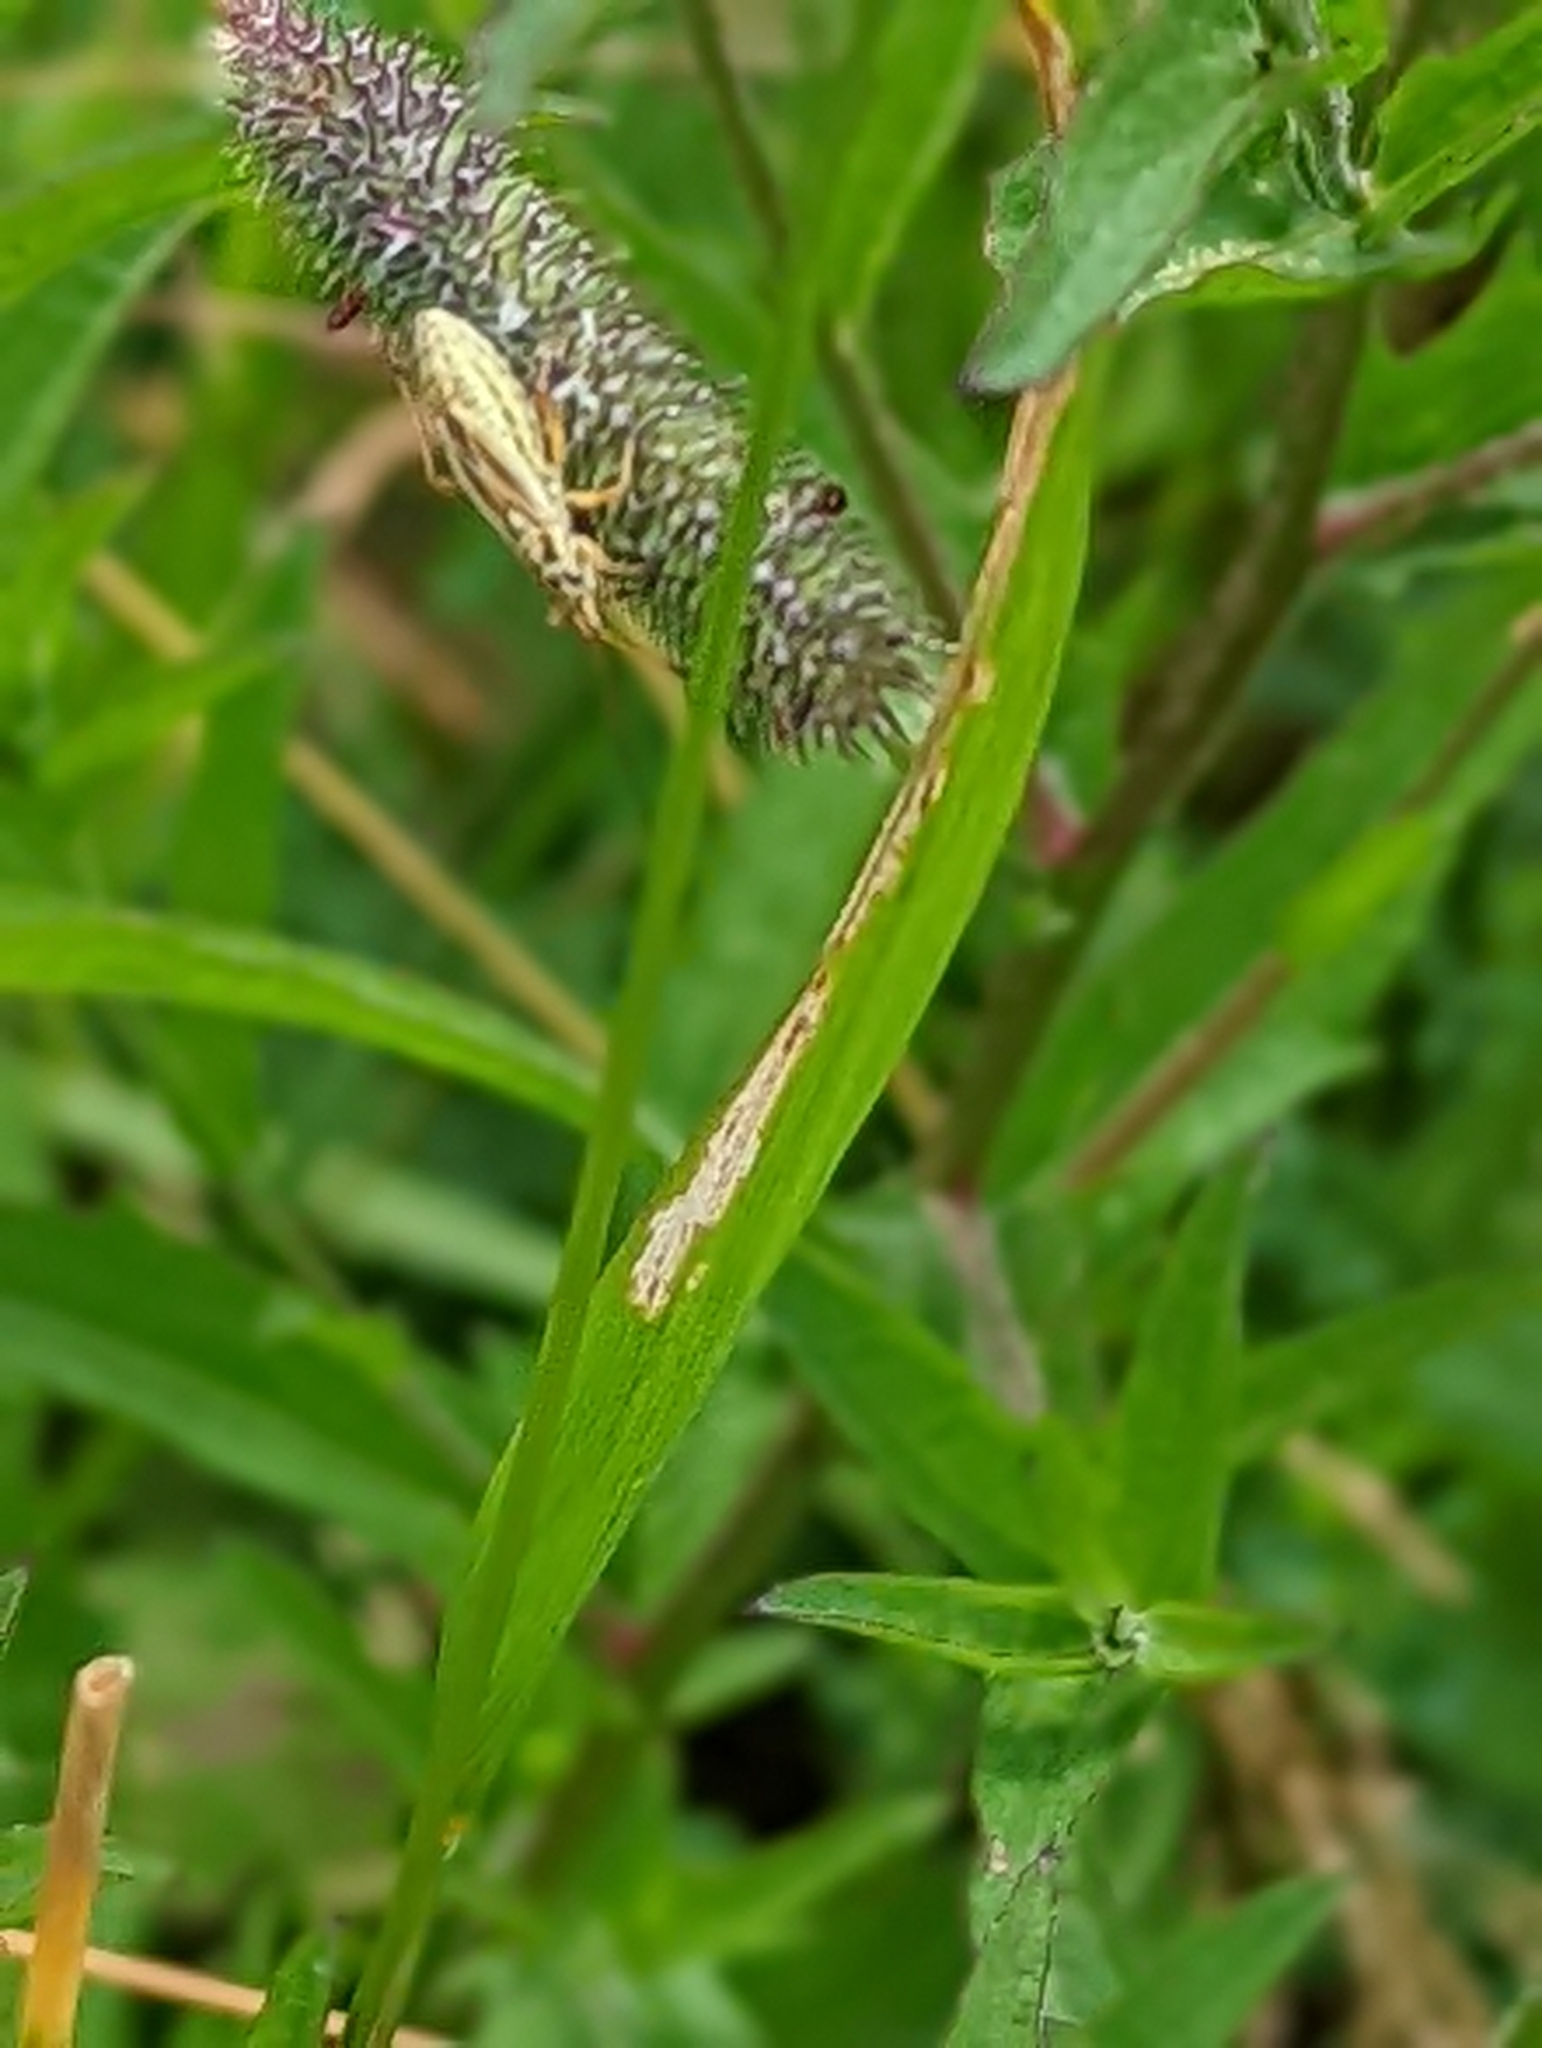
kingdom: Animalia
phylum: Arthropoda
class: Insecta
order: Hemiptera
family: Miridae
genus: Leptopterna
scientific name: Leptopterna dolabrata
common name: Meadow plant bug
